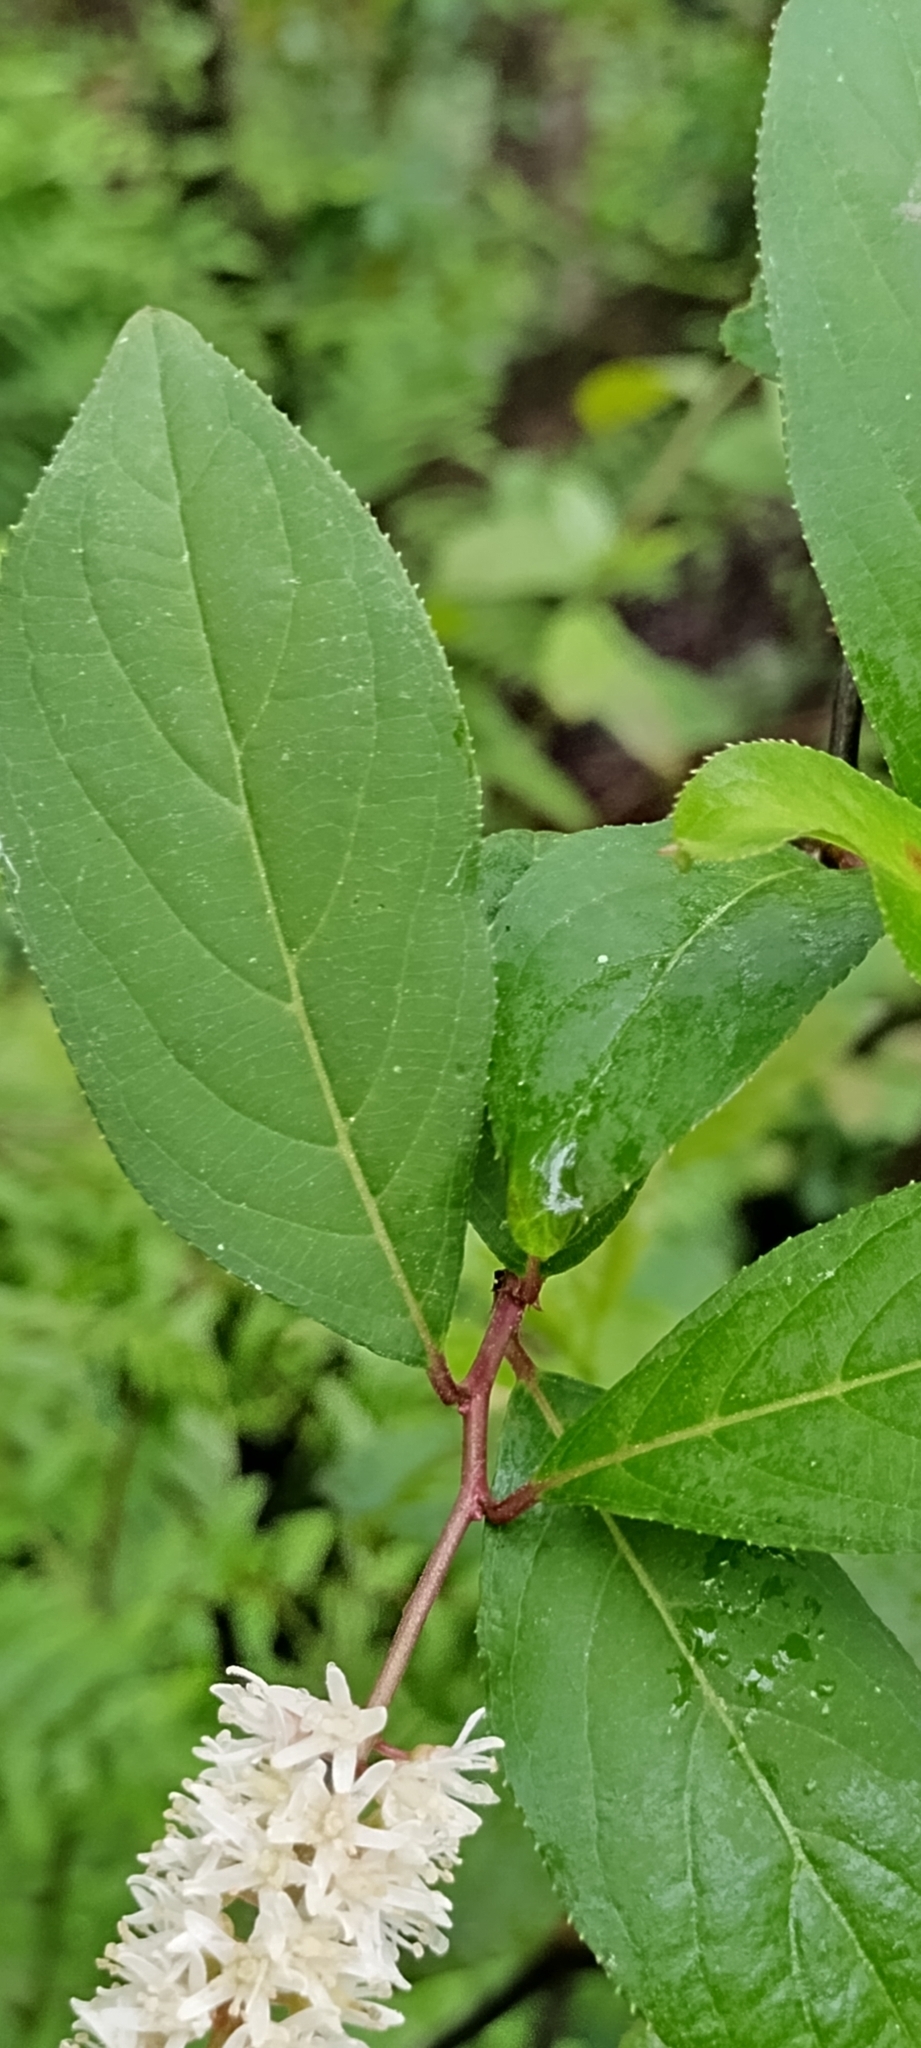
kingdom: Plantae
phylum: Tracheophyta
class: Magnoliopsida
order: Saxifragales
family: Iteaceae
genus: Itea
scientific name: Itea virginica
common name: Sweetspire
